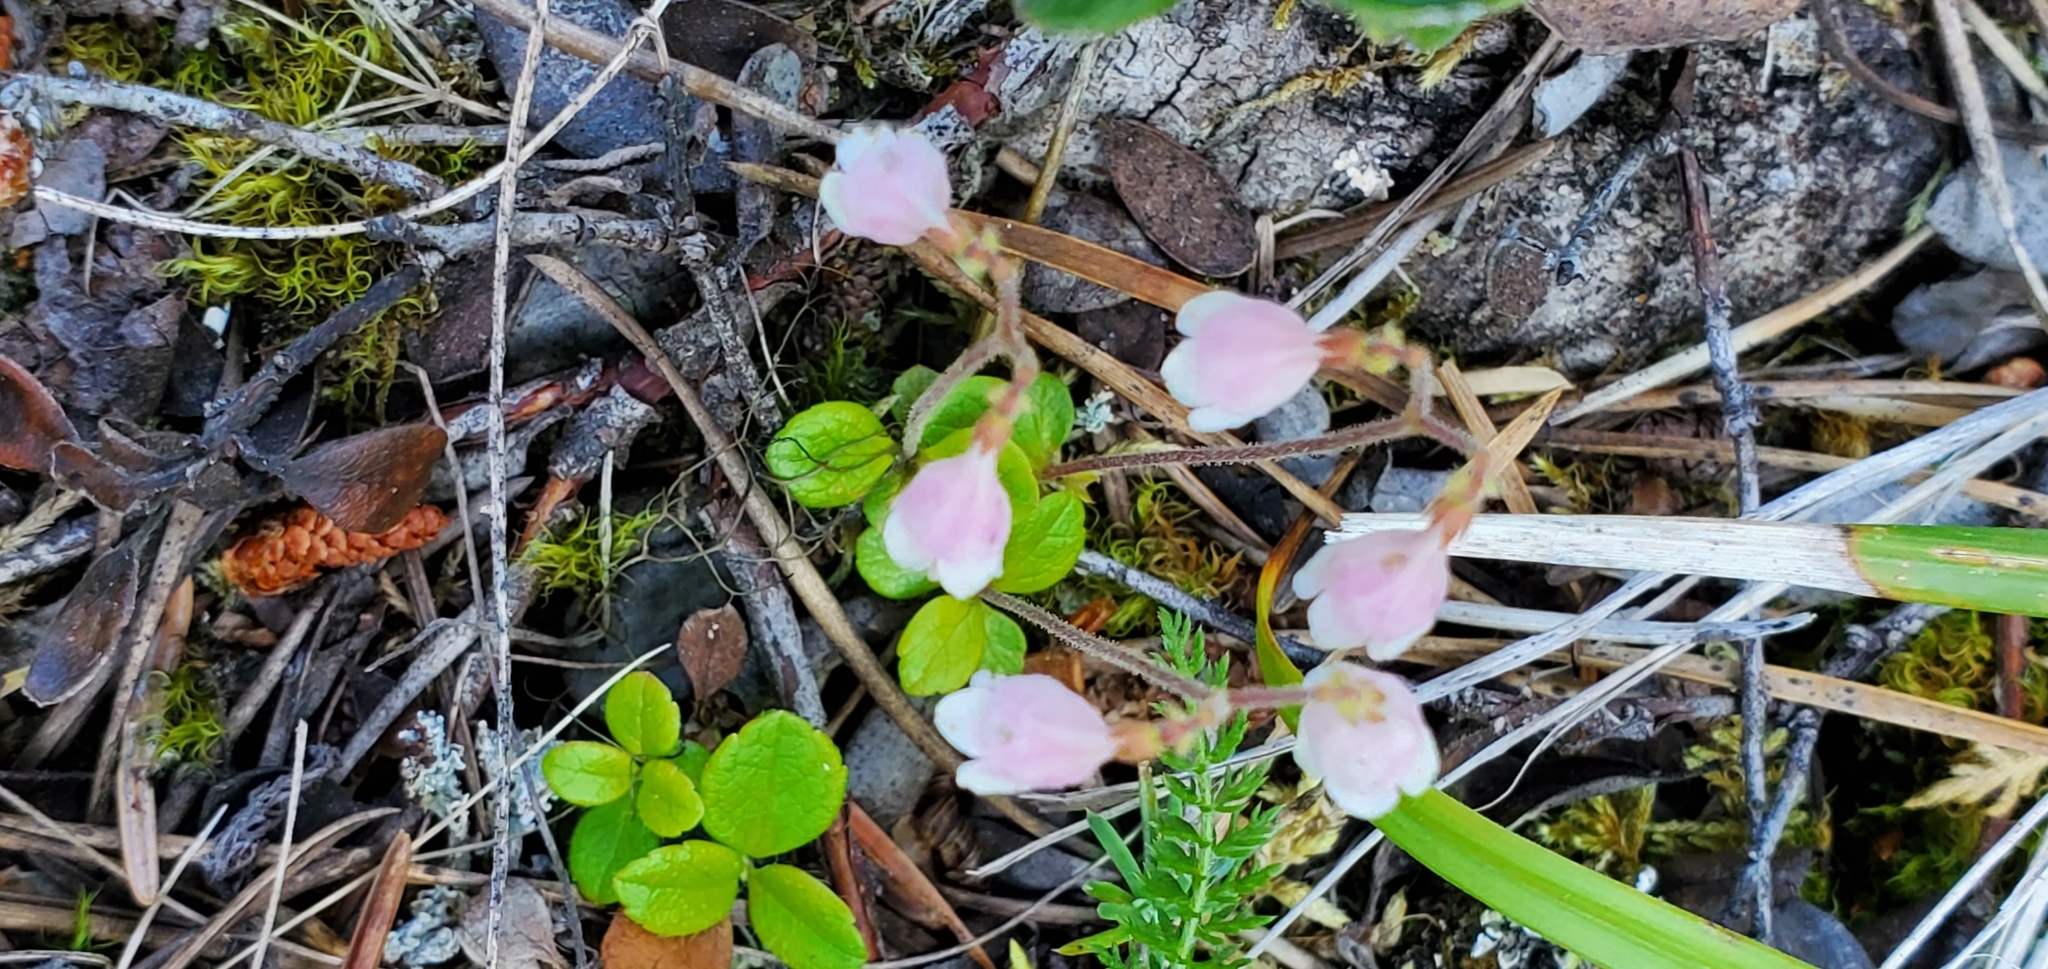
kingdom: Plantae
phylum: Tracheophyta
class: Magnoliopsida
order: Dipsacales
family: Caprifoliaceae
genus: Linnaea
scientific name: Linnaea borealis
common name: Twinflower
